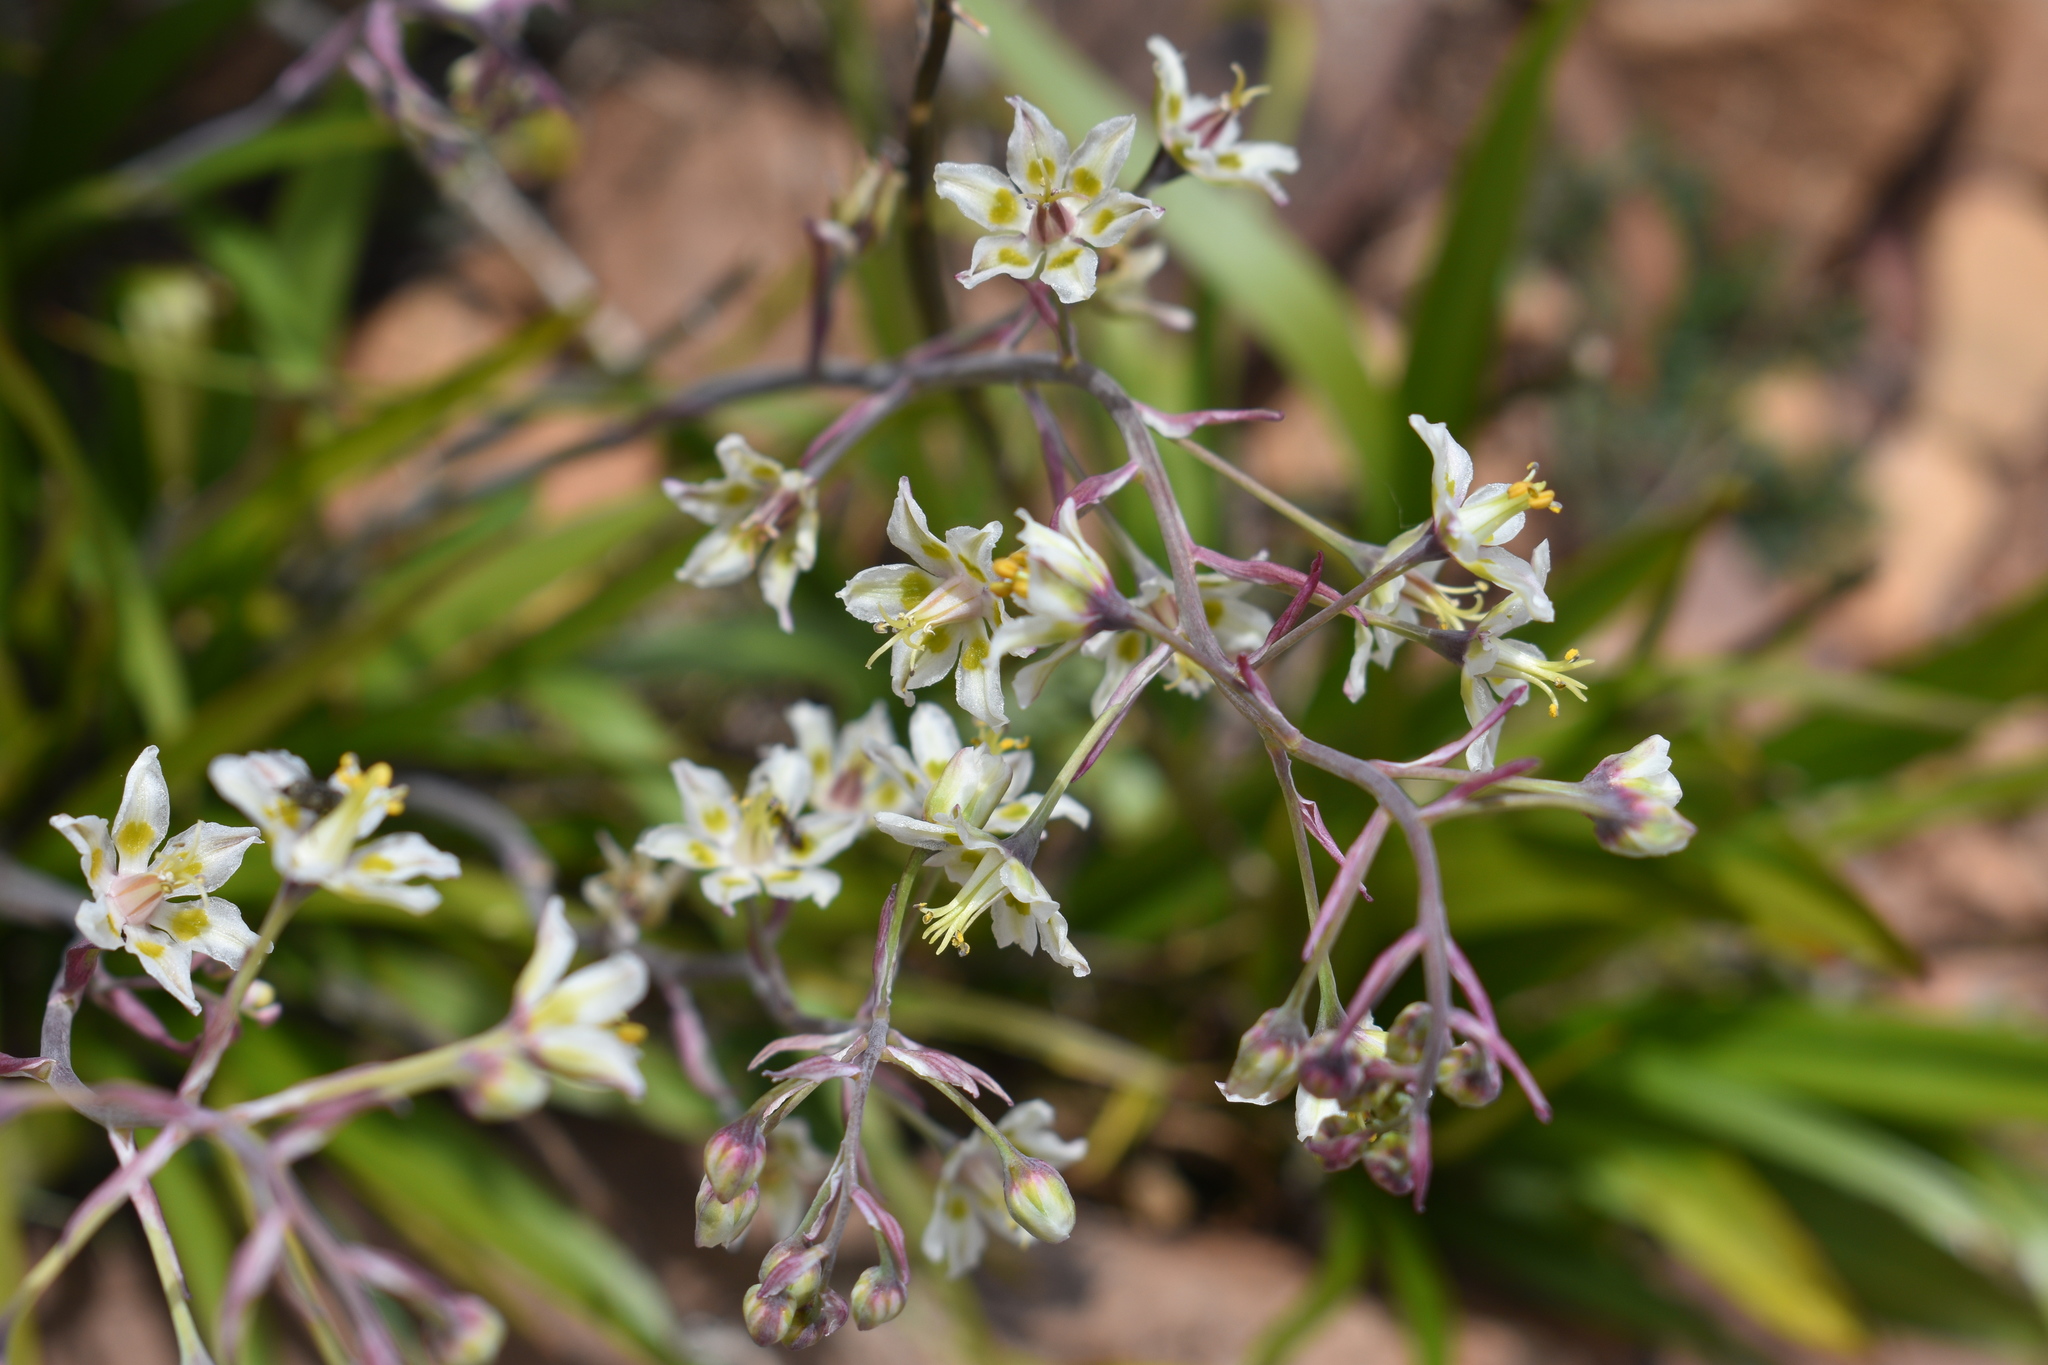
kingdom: Plantae
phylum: Tracheophyta
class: Liliopsida
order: Liliales
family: Melanthiaceae
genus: Anticlea
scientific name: Anticlea elegans
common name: Mountain death camas
